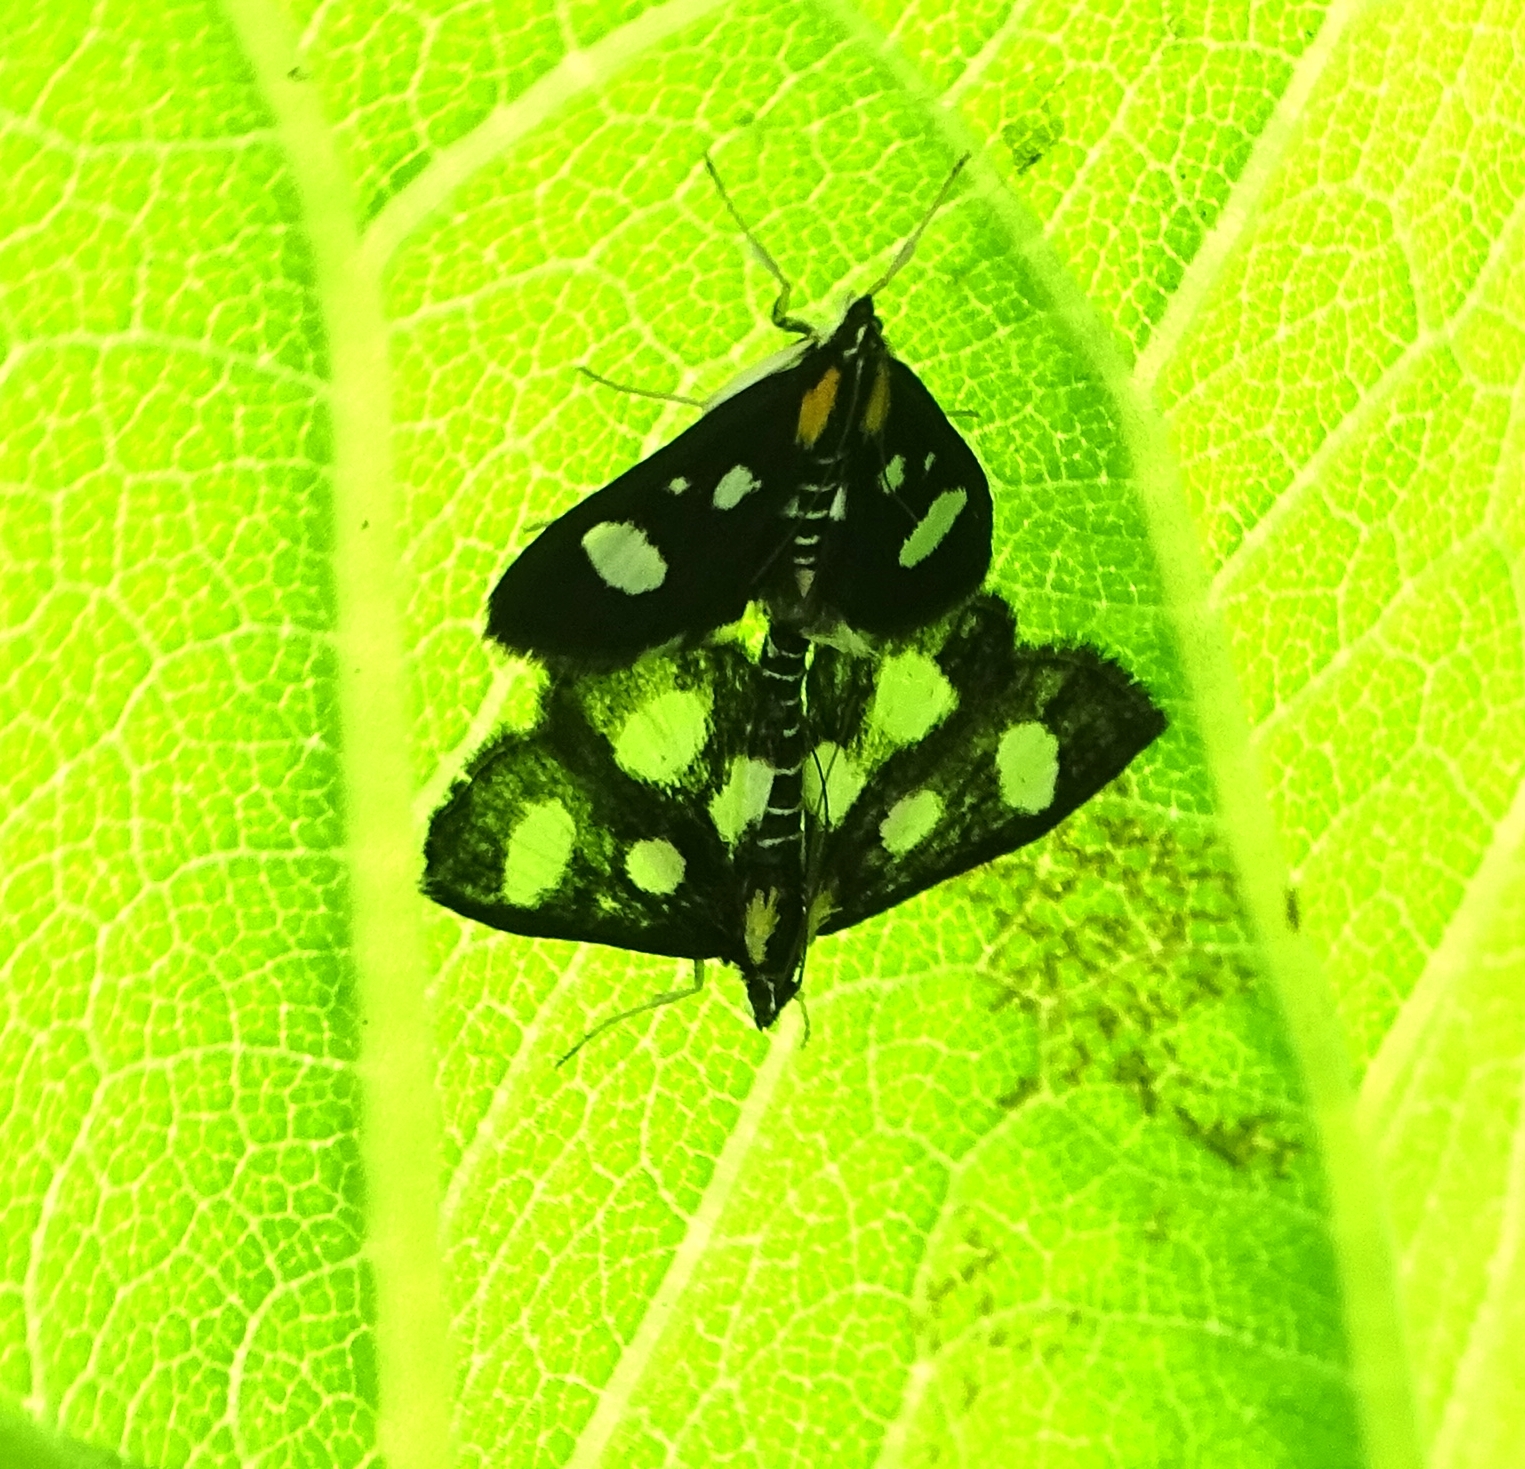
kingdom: Animalia
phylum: Arthropoda
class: Insecta
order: Lepidoptera
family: Crambidae
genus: Anania
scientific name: Anania funebris
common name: White-spotted sable moth
